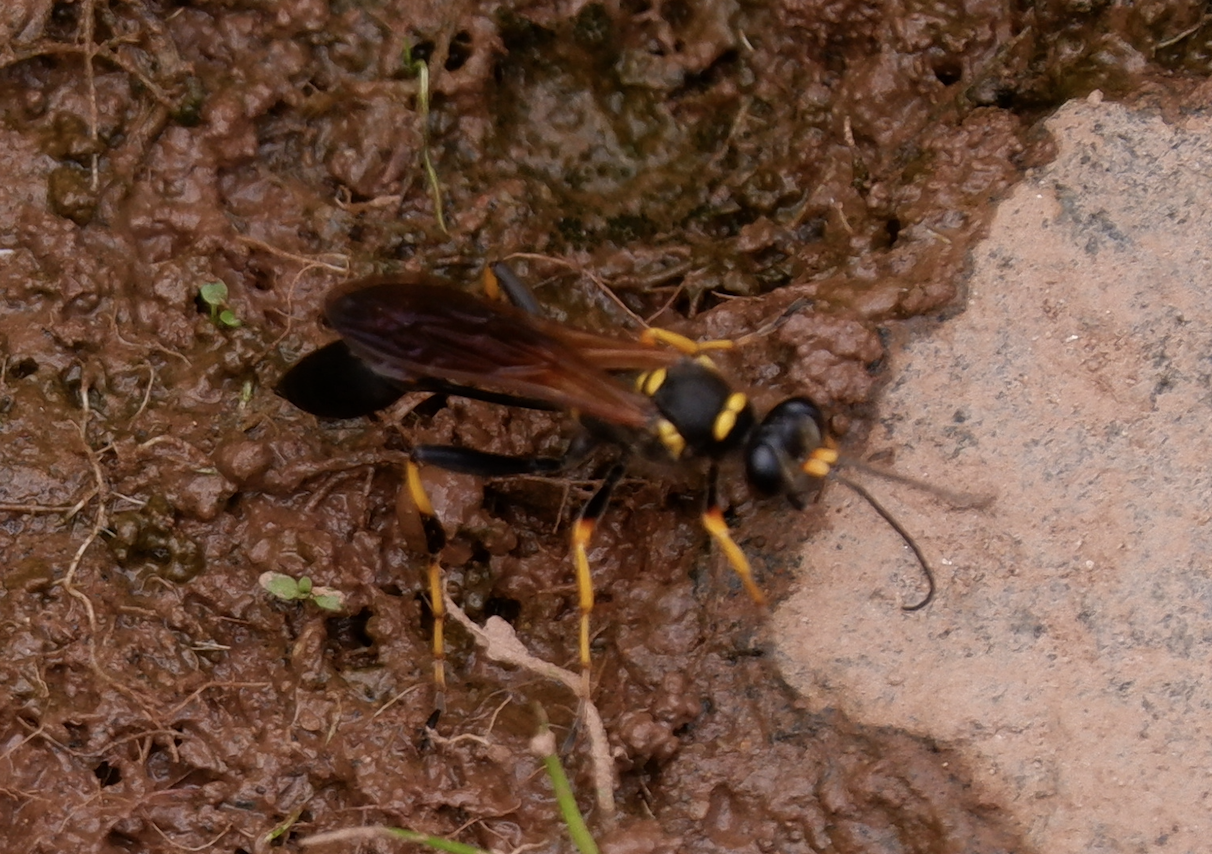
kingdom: Animalia
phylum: Arthropoda
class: Insecta
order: Hymenoptera
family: Sphecidae
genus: Sceliphron
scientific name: Sceliphron caementarium
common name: Mud dauber
